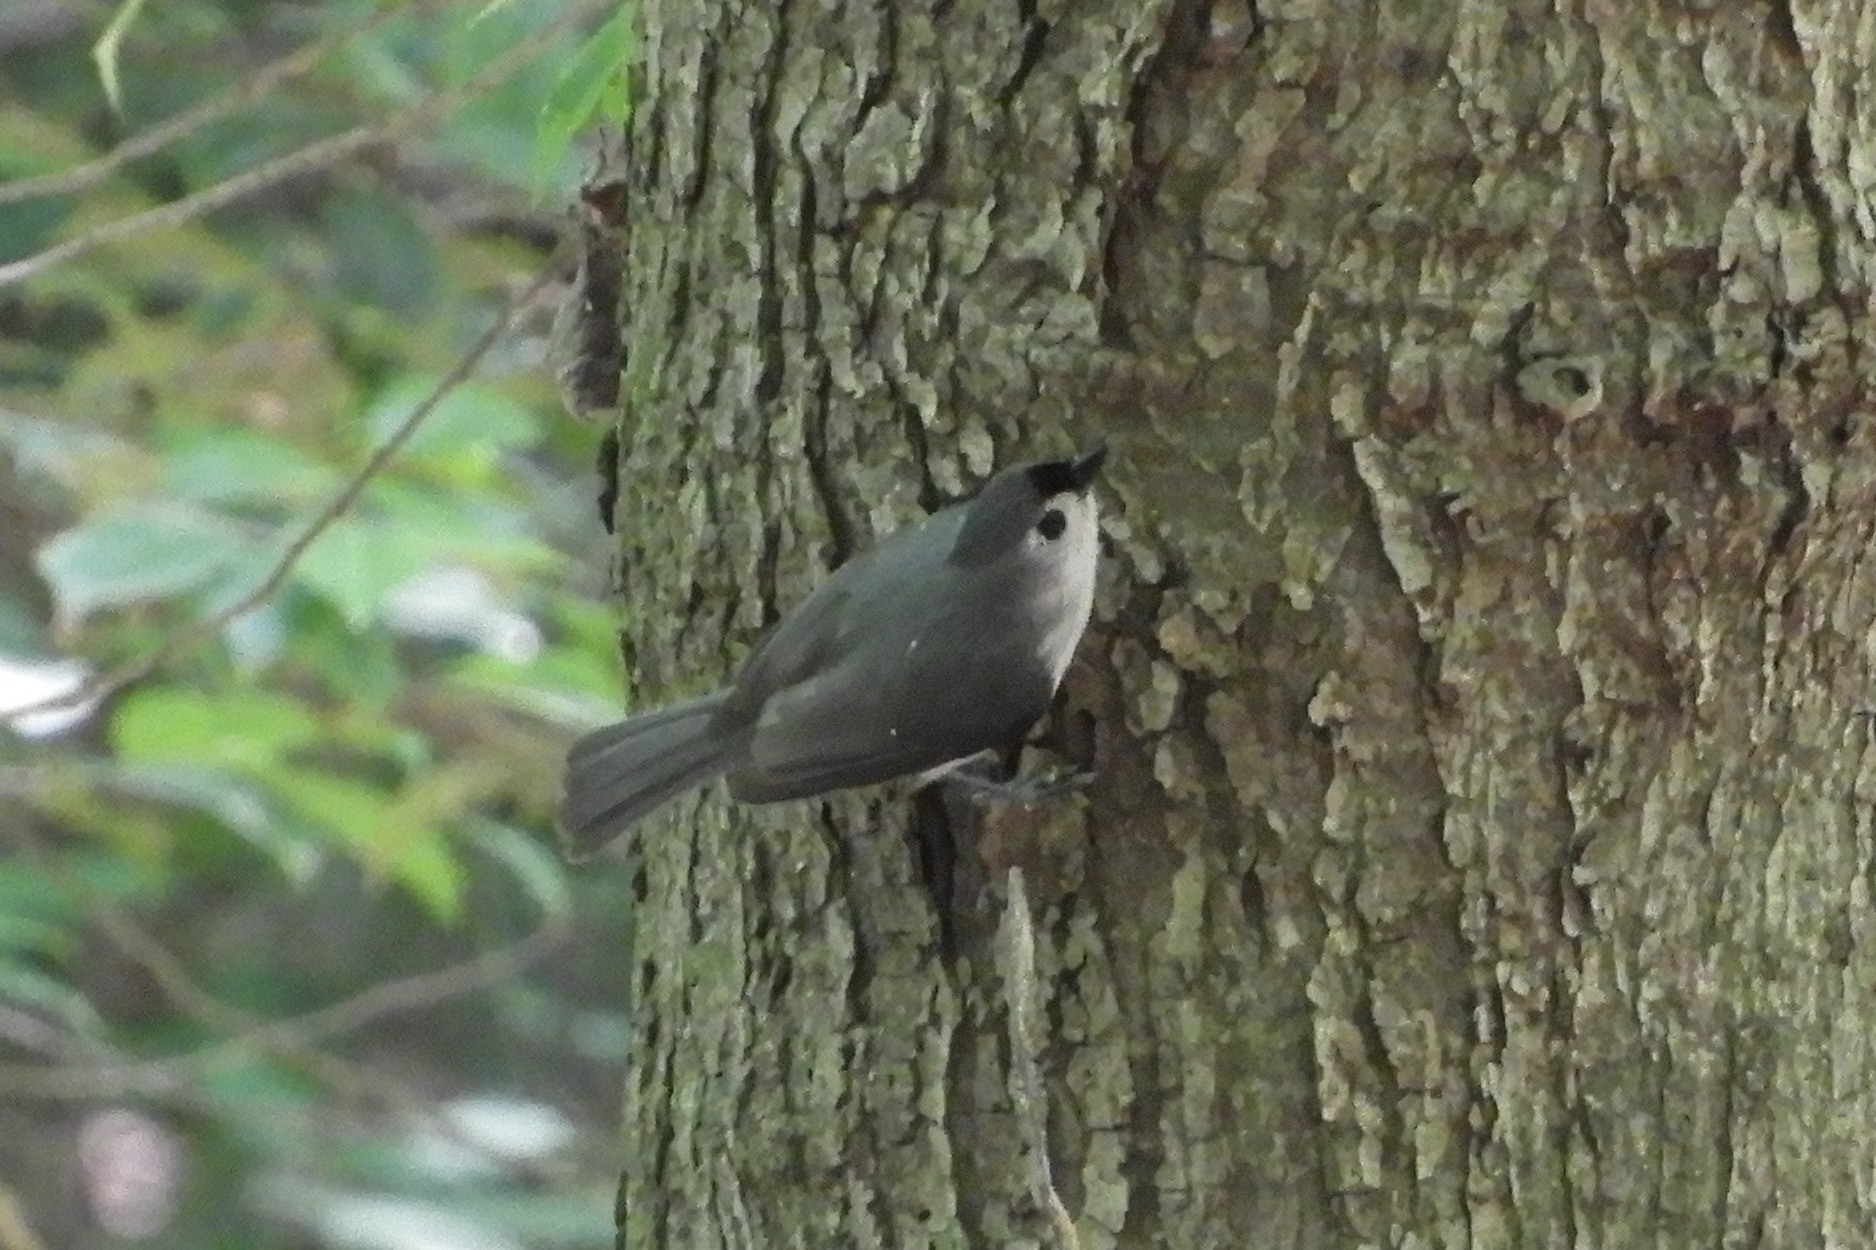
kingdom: Animalia
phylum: Chordata
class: Aves
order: Passeriformes
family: Paridae
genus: Baeolophus
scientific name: Baeolophus bicolor
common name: Tufted titmouse
